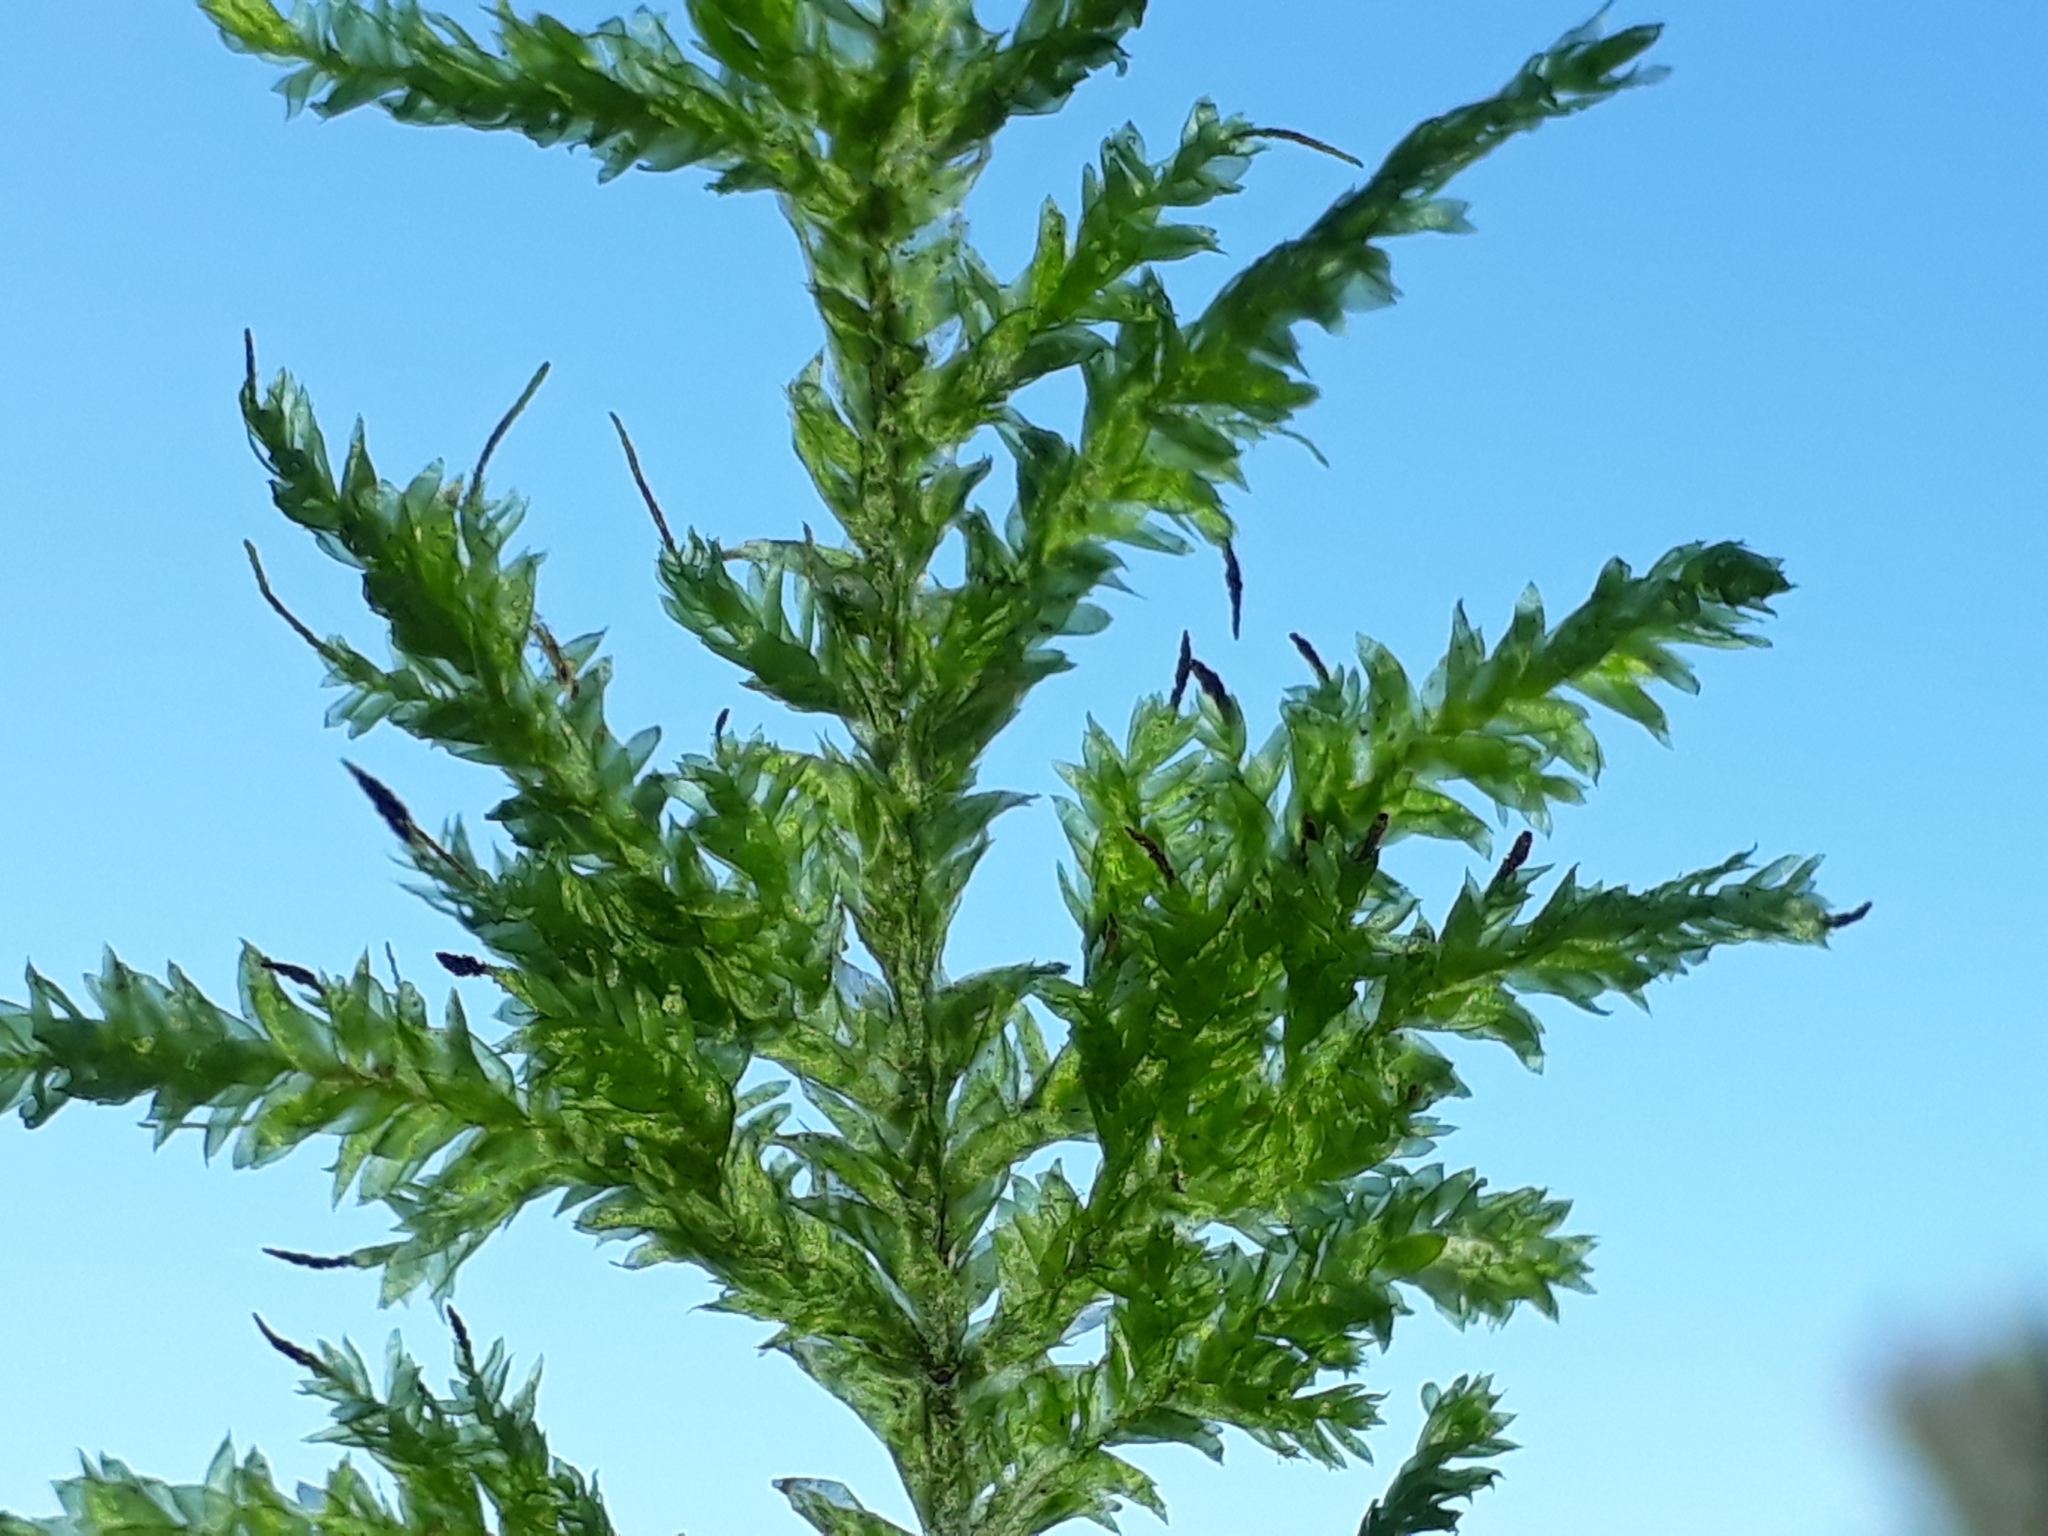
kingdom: Plantae
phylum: Bryophyta
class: Bryopsida
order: Hypnales
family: Trachylomataceae
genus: Trachyloma
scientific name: Trachyloma diversinerve
